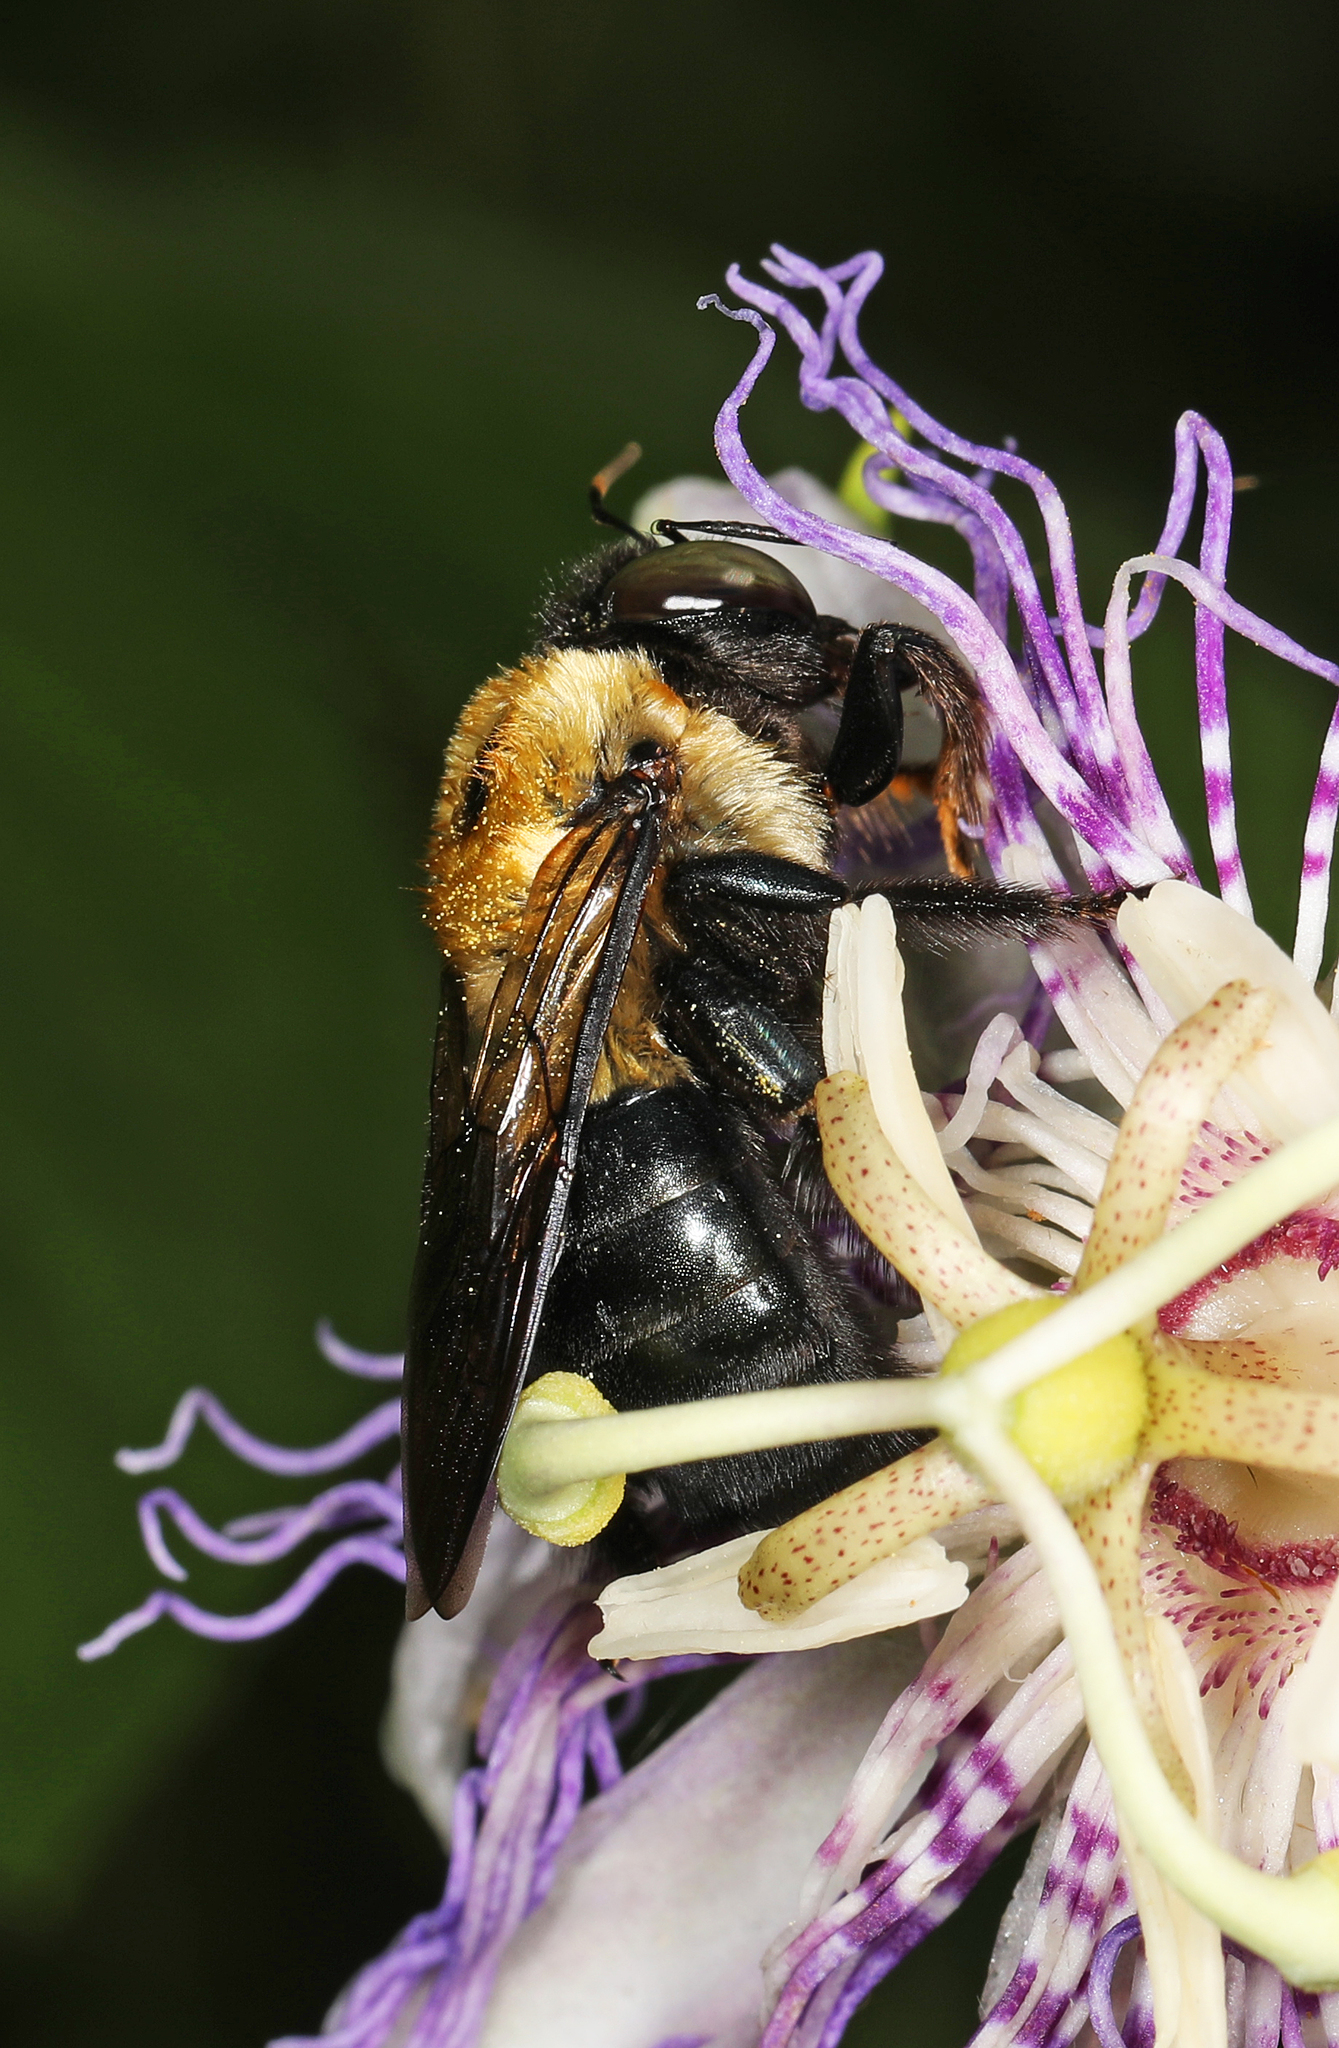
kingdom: Animalia
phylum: Arthropoda
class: Insecta
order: Hymenoptera
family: Apidae
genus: Xylocopa
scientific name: Xylocopa virginica
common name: Carpenter bee
